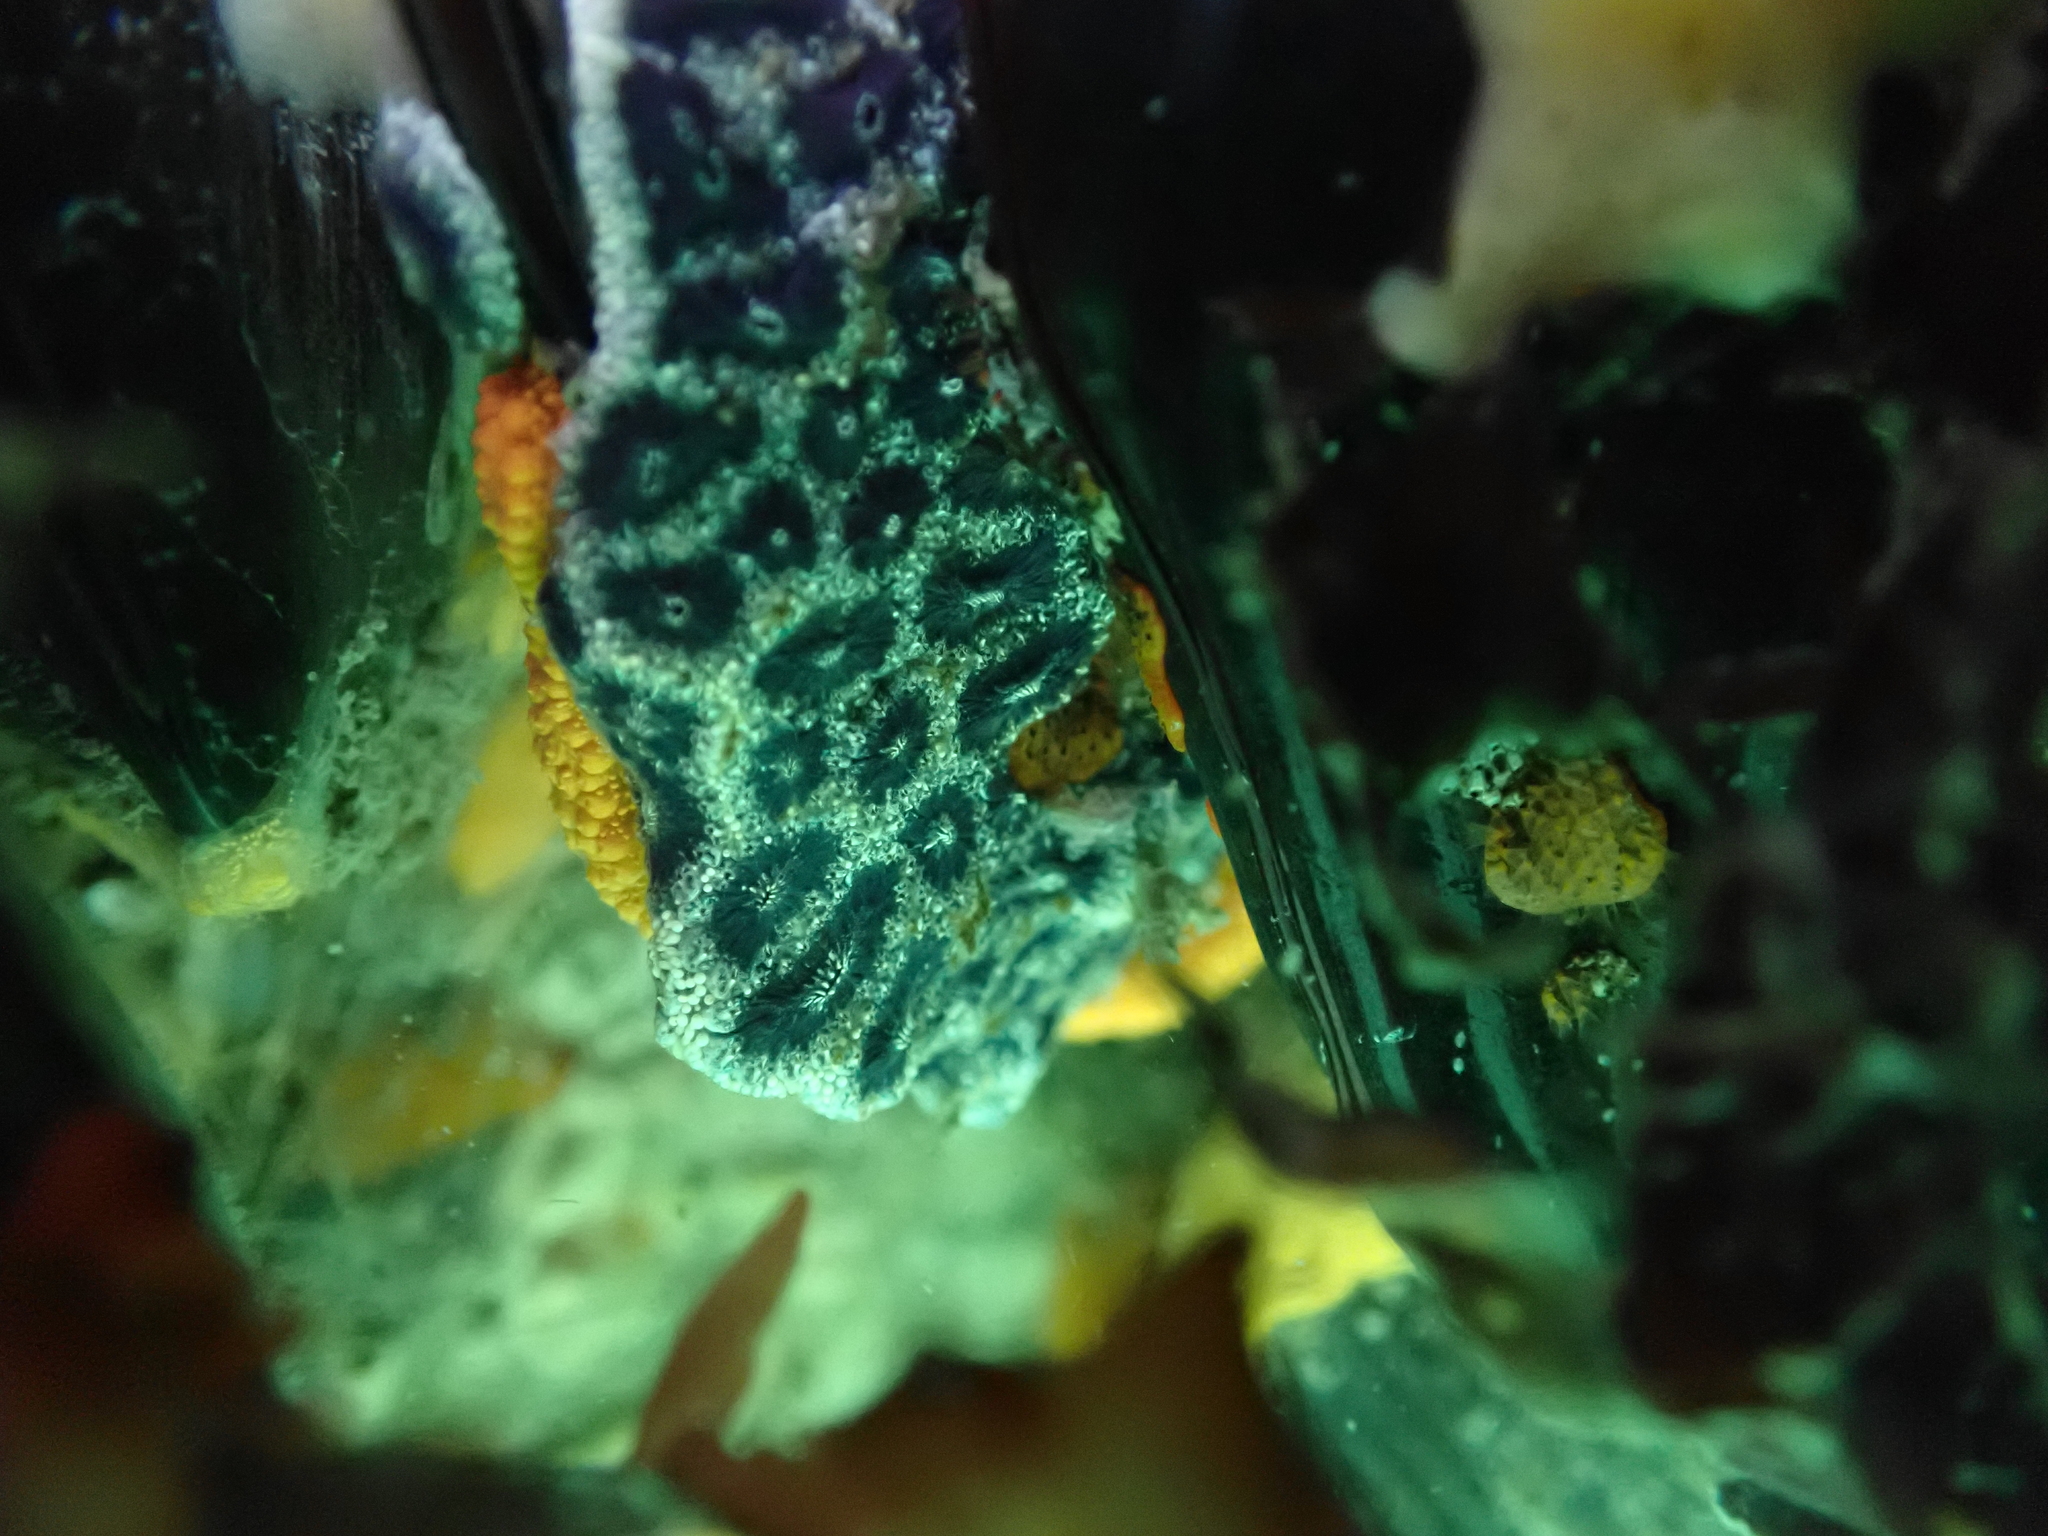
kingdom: Animalia
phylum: Chordata
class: Ascidiacea
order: Stolidobranchia
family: Styelidae
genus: Botryllus
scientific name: Botryllus schlosseri
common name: Golden star tunicate
